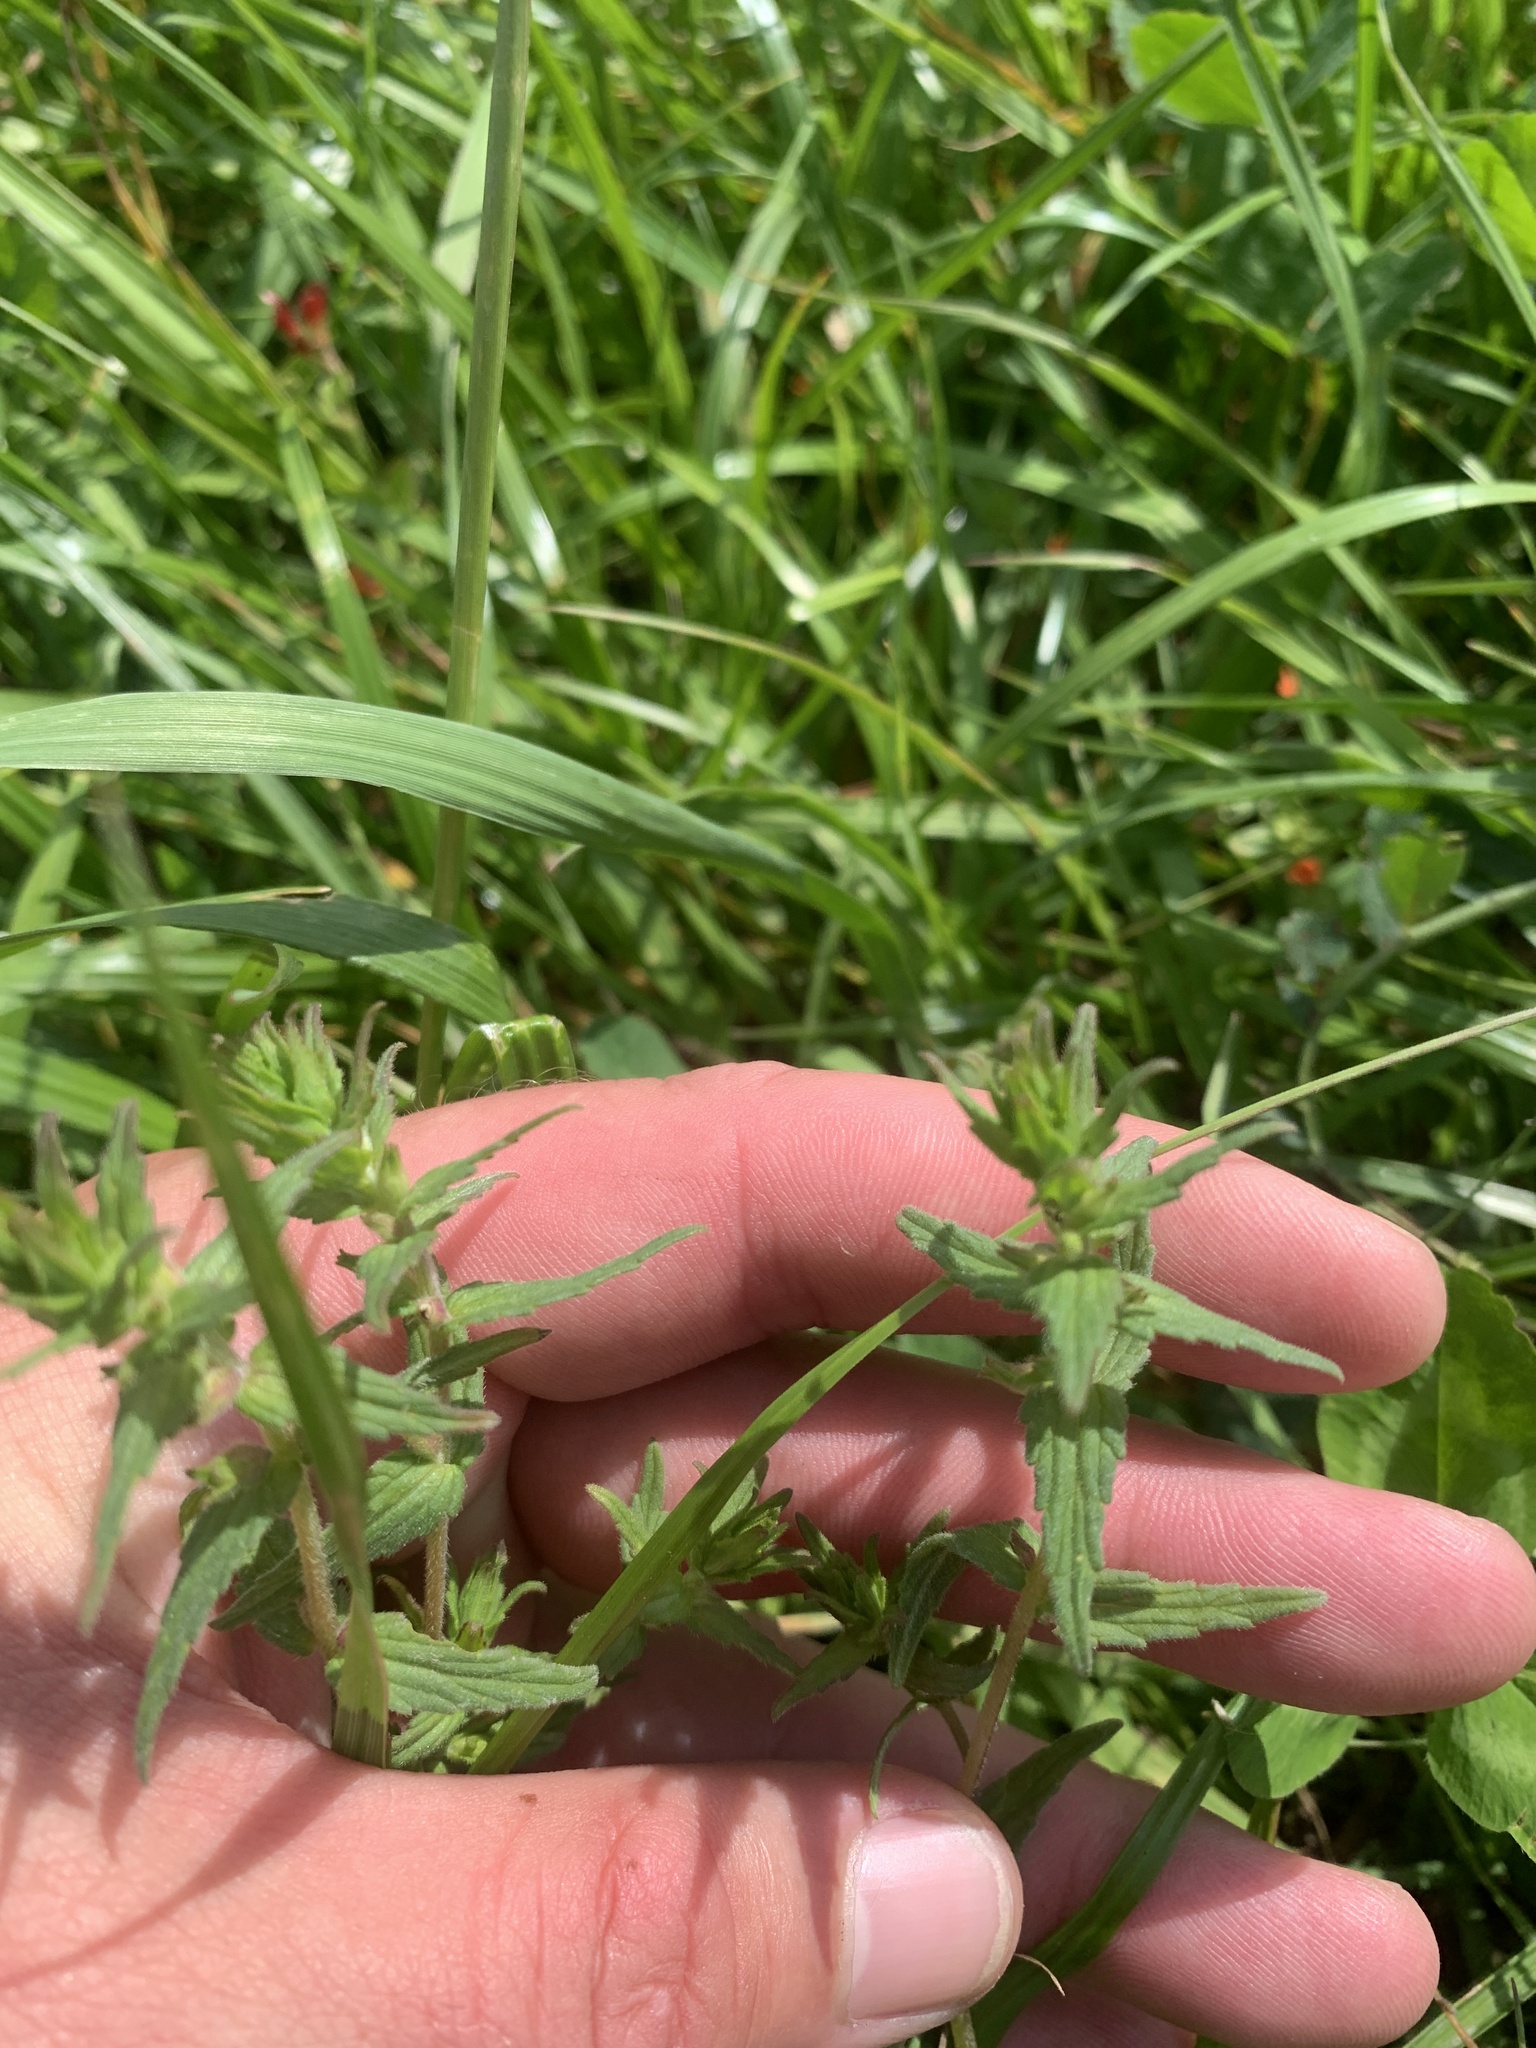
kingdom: Plantae
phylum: Tracheophyta
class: Magnoliopsida
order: Lamiales
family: Orobanchaceae
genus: Odontites
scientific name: Odontites vernus
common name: Red bartsia
